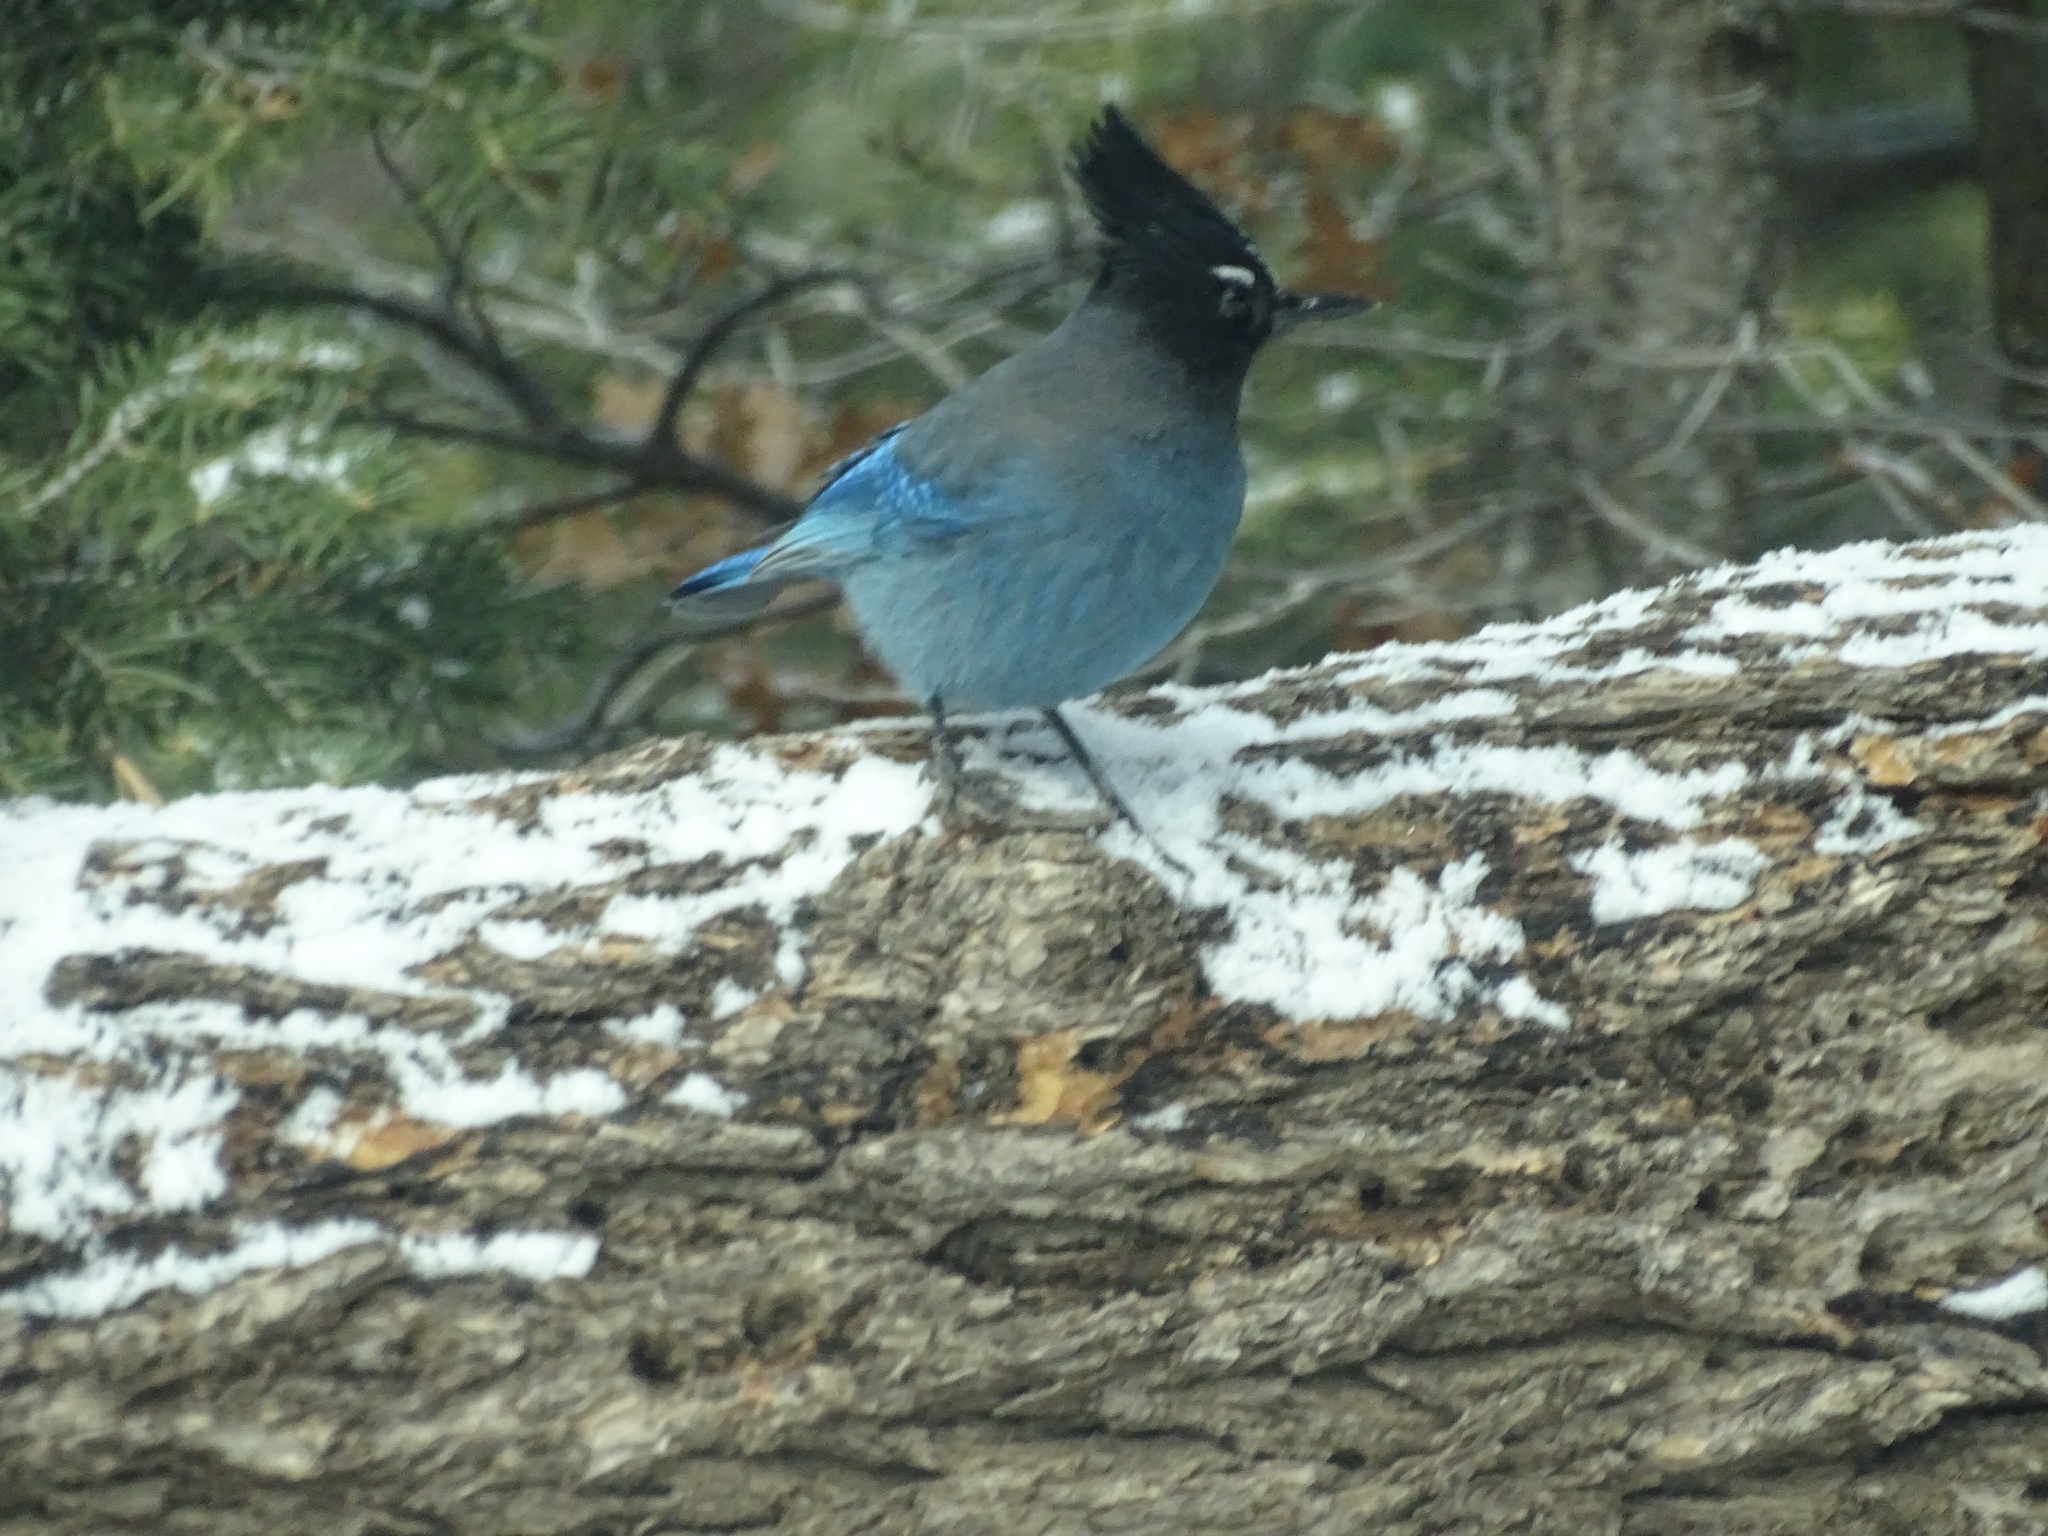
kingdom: Animalia
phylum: Chordata
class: Aves
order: Passeriformes
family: Corvidae
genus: Cyanocitta
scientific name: Cyanocitta stelleri
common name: Steller's jay
